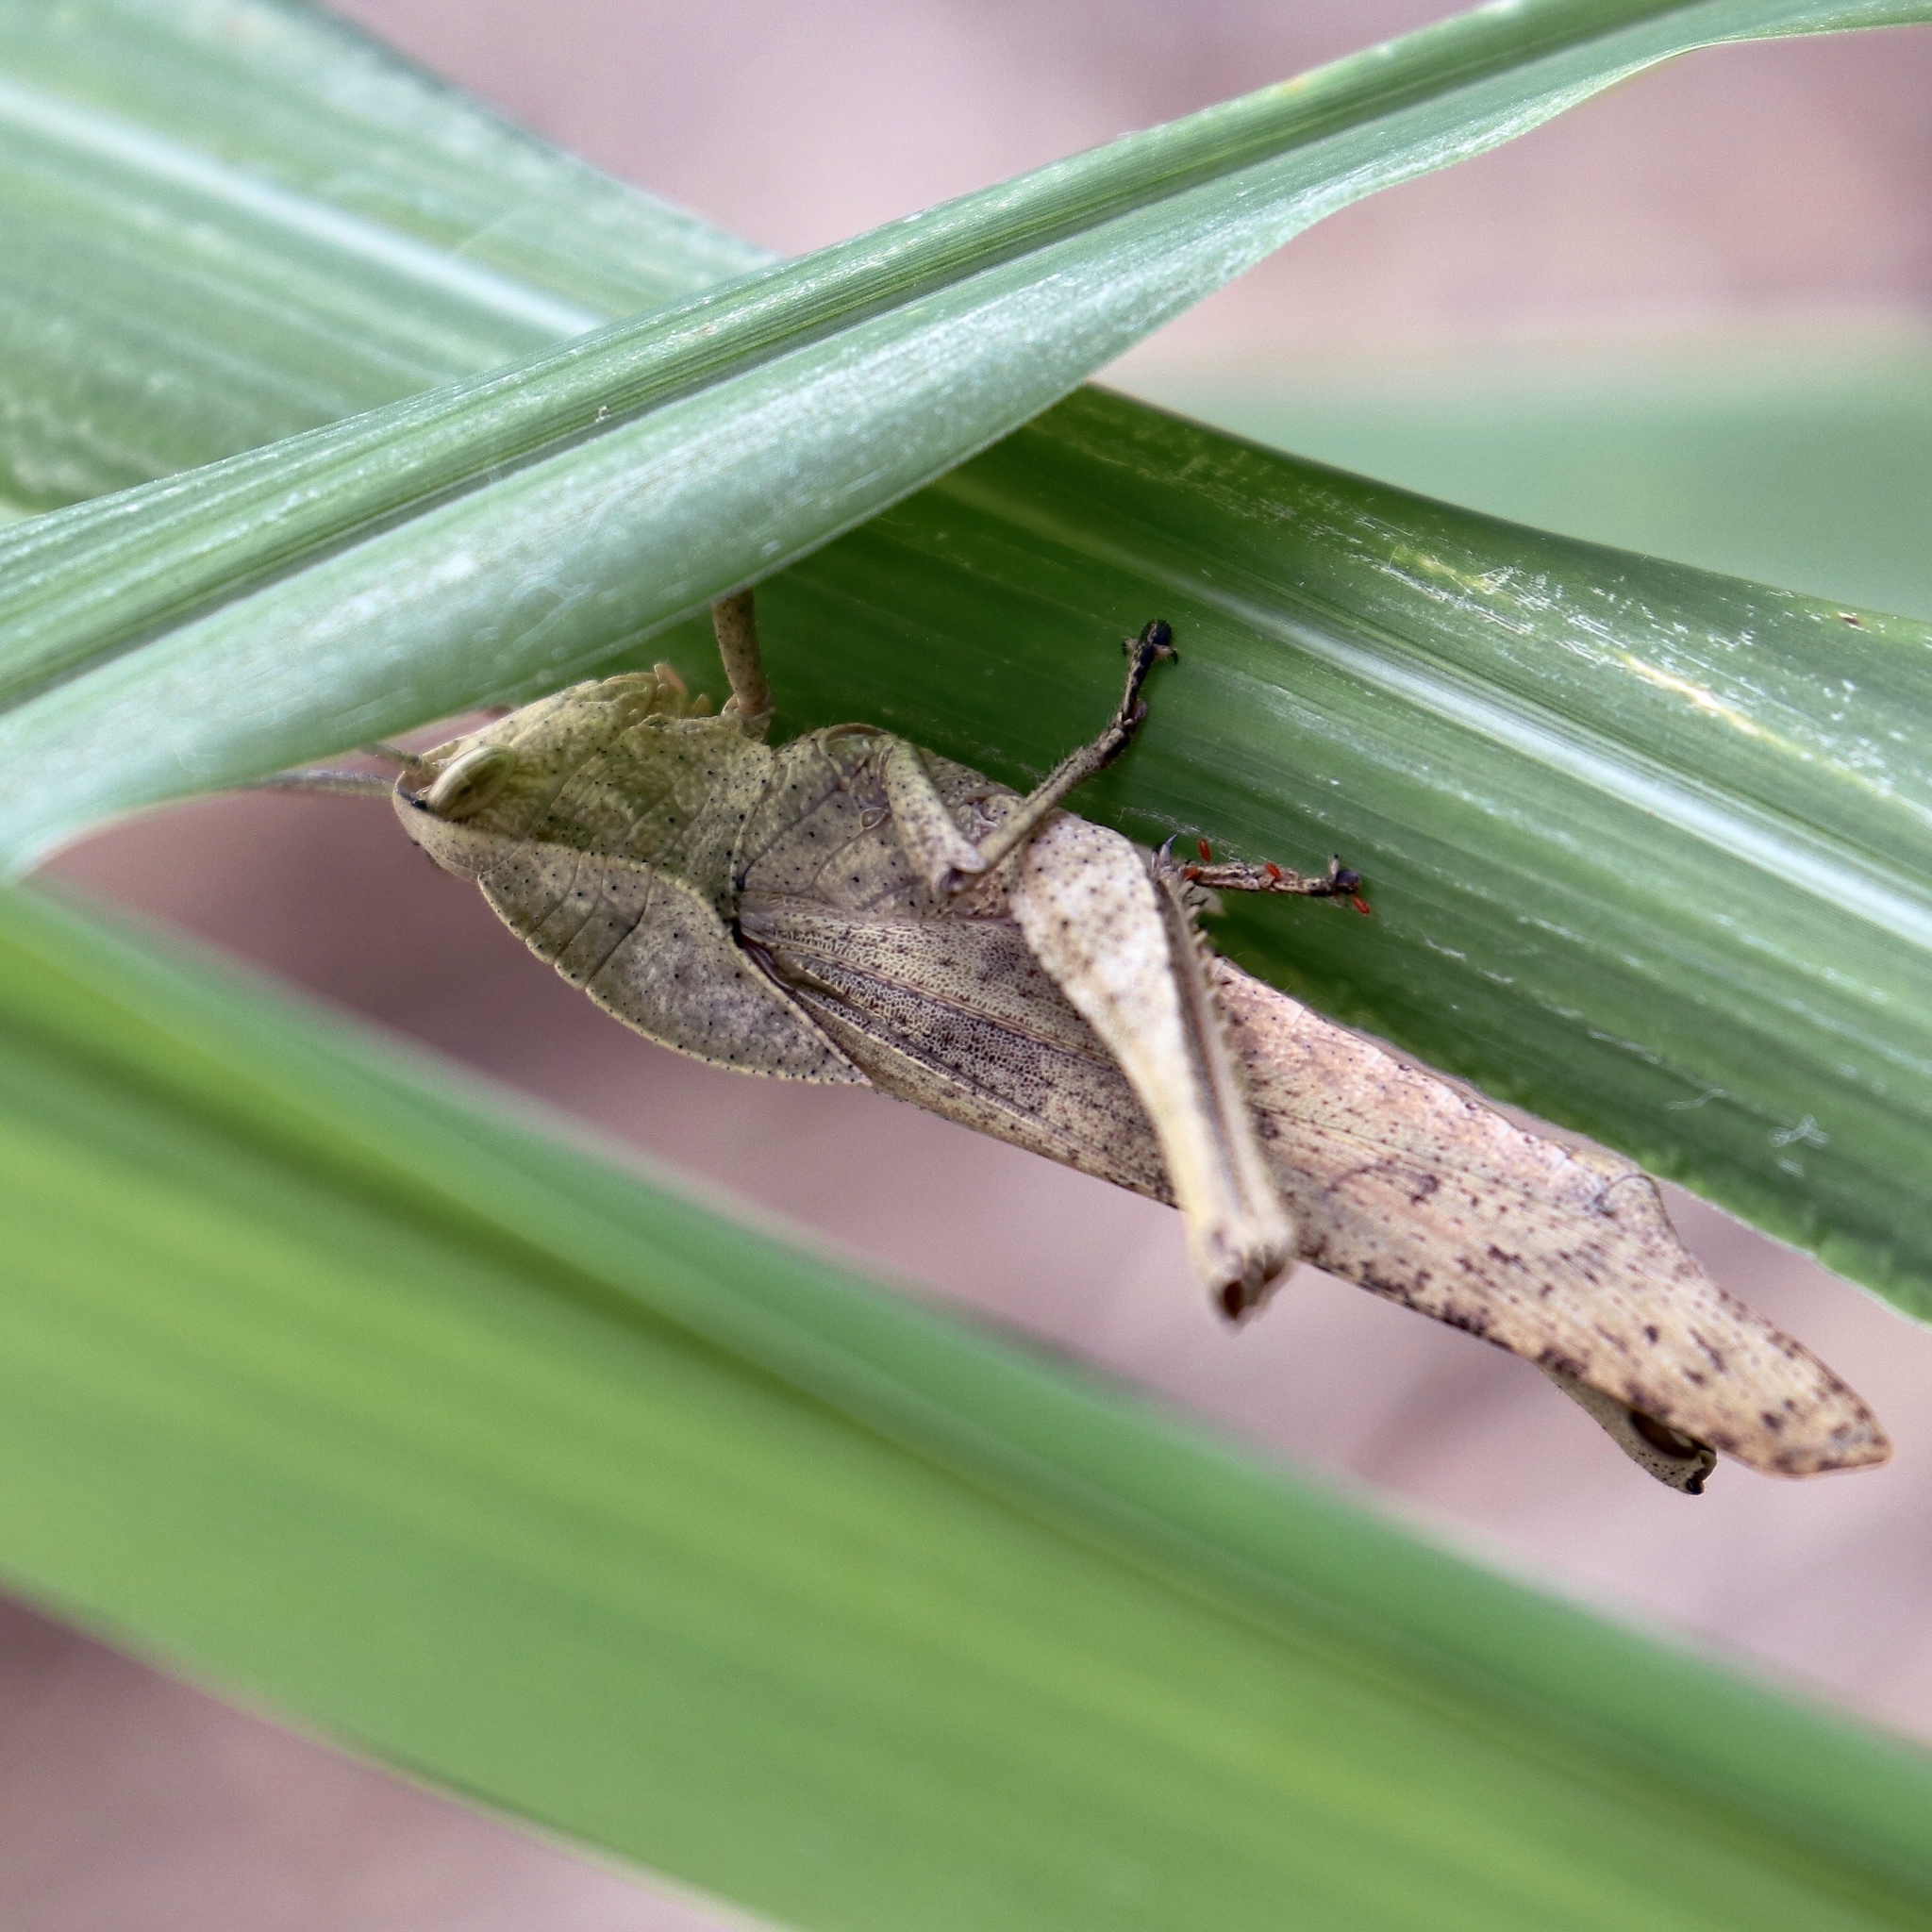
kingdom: Animalia
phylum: Arthropoda
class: Insecta
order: Orthoptera
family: Romaleidae
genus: Xyleus
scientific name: Xyleus discoideus
